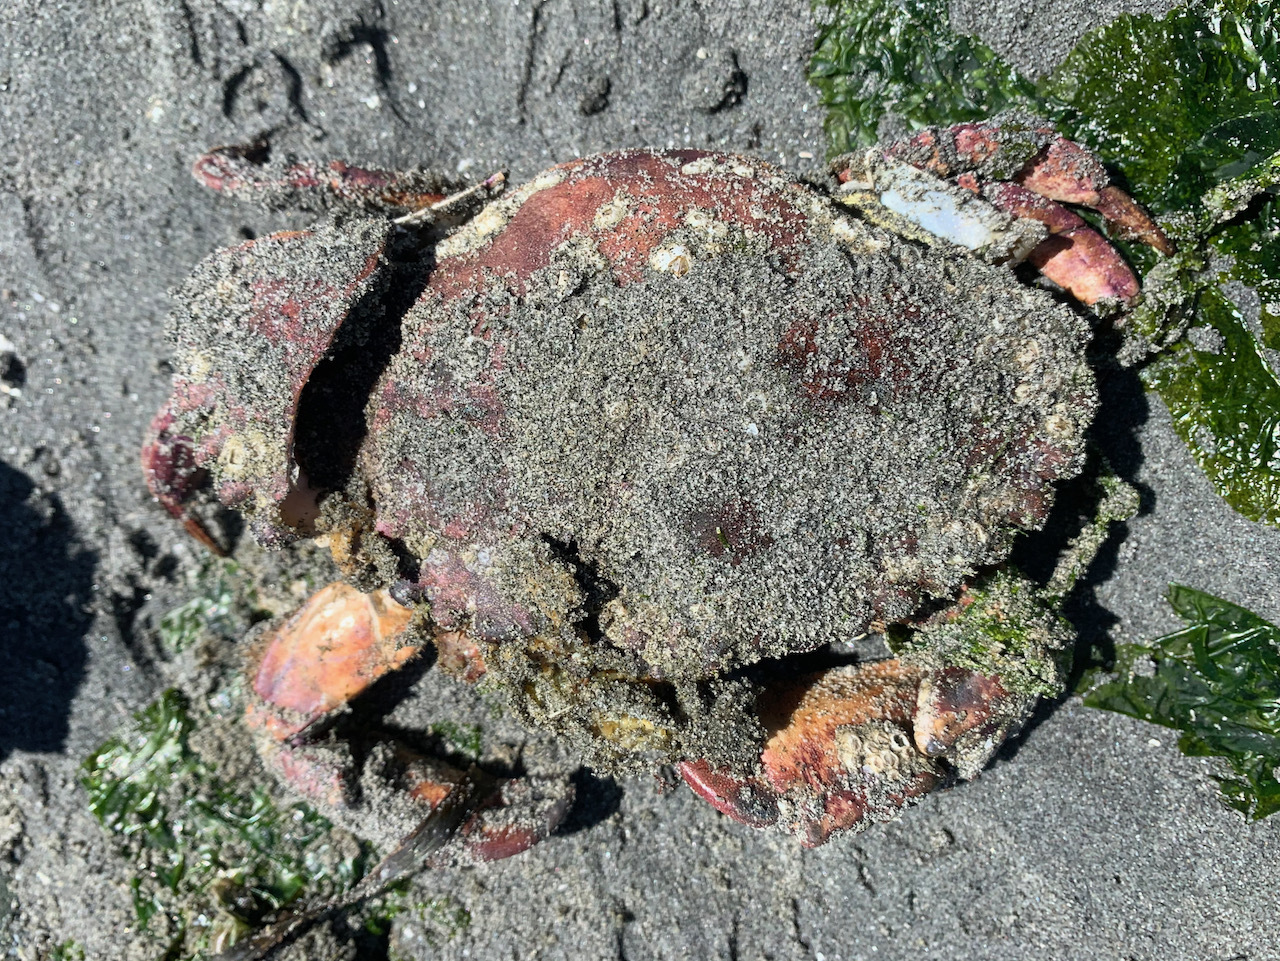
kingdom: Animalia
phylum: Arthropoda
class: Malacostraca
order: Decapoda
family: Cancridae
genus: Cancer
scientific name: Cancer productus
